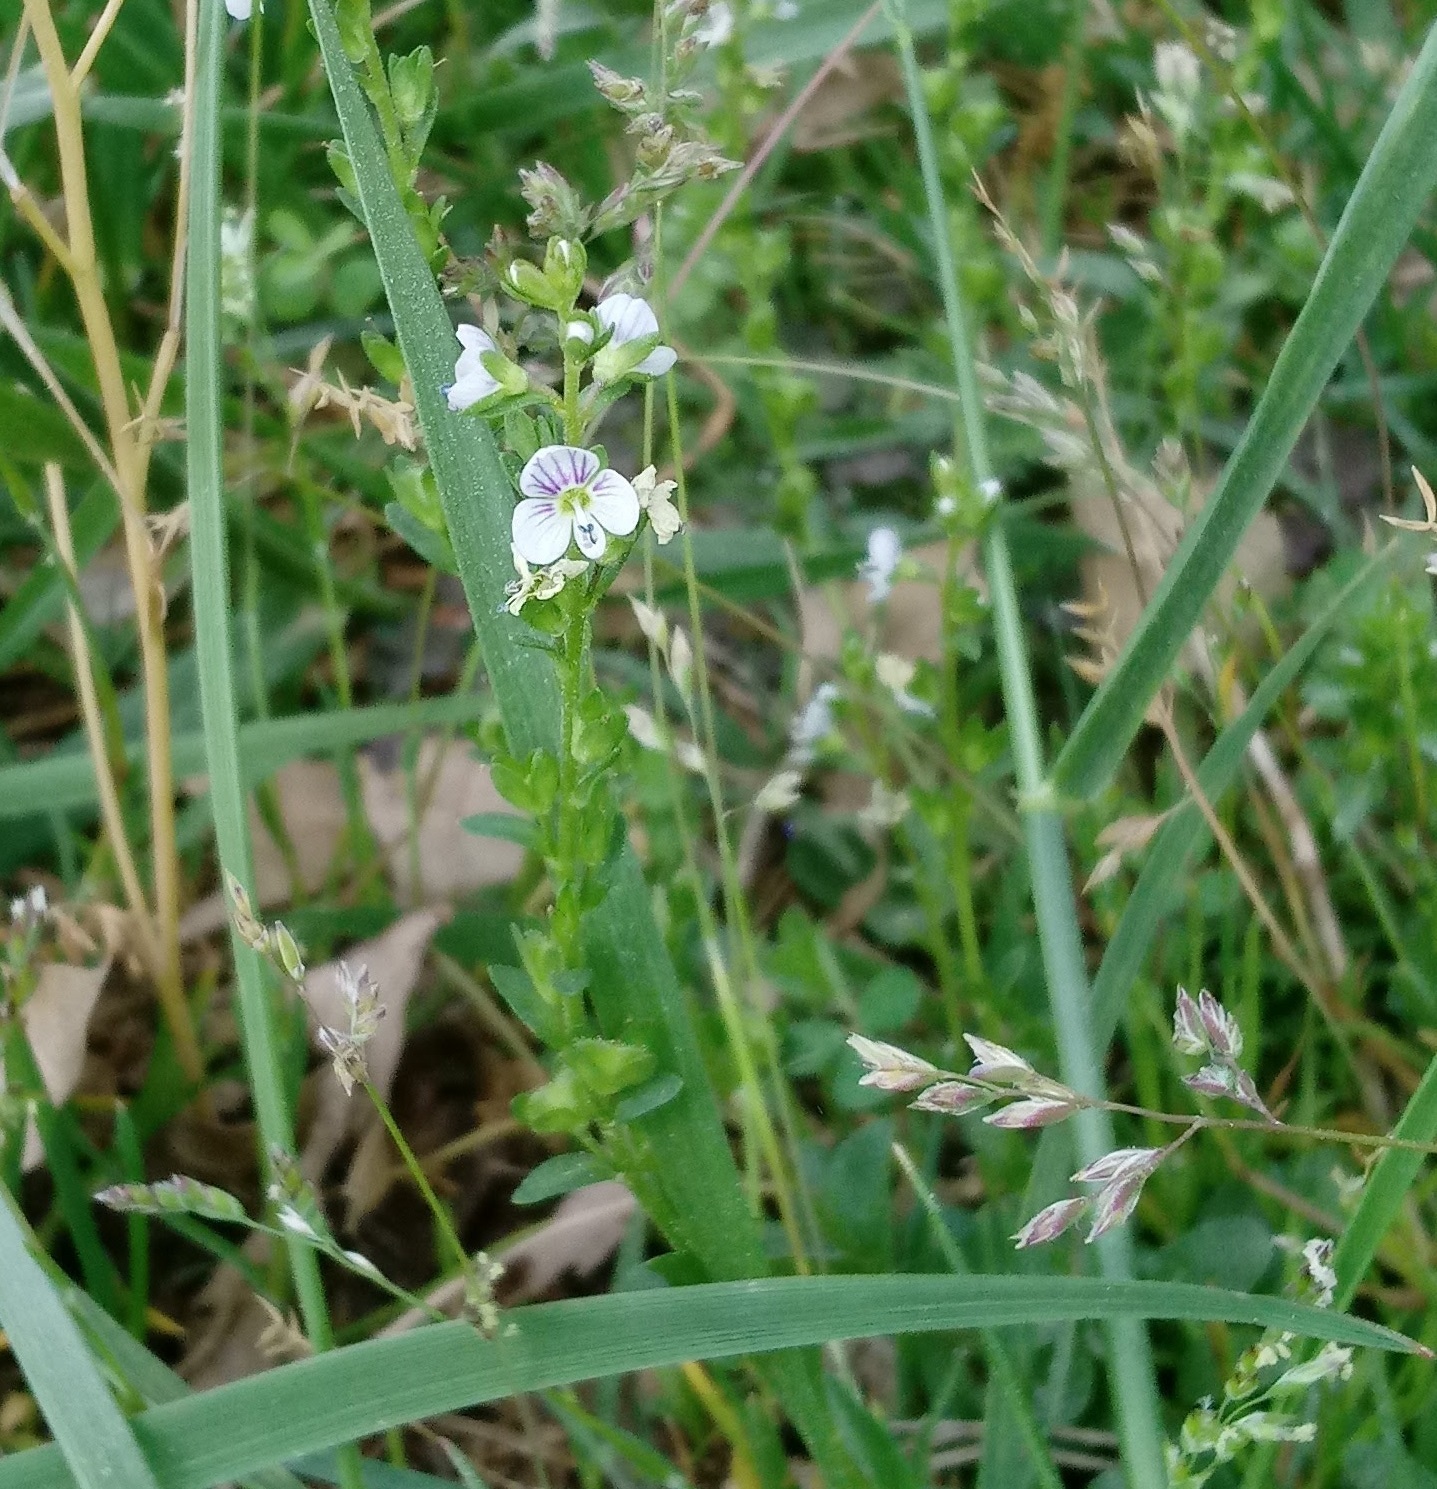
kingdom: Plantae
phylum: Tracheophyta
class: Magnoliopsida
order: Lamiales
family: Plantaginaceae
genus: Veronica
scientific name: Veronica serpyllifolia
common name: Thyme-leaved speedwell
